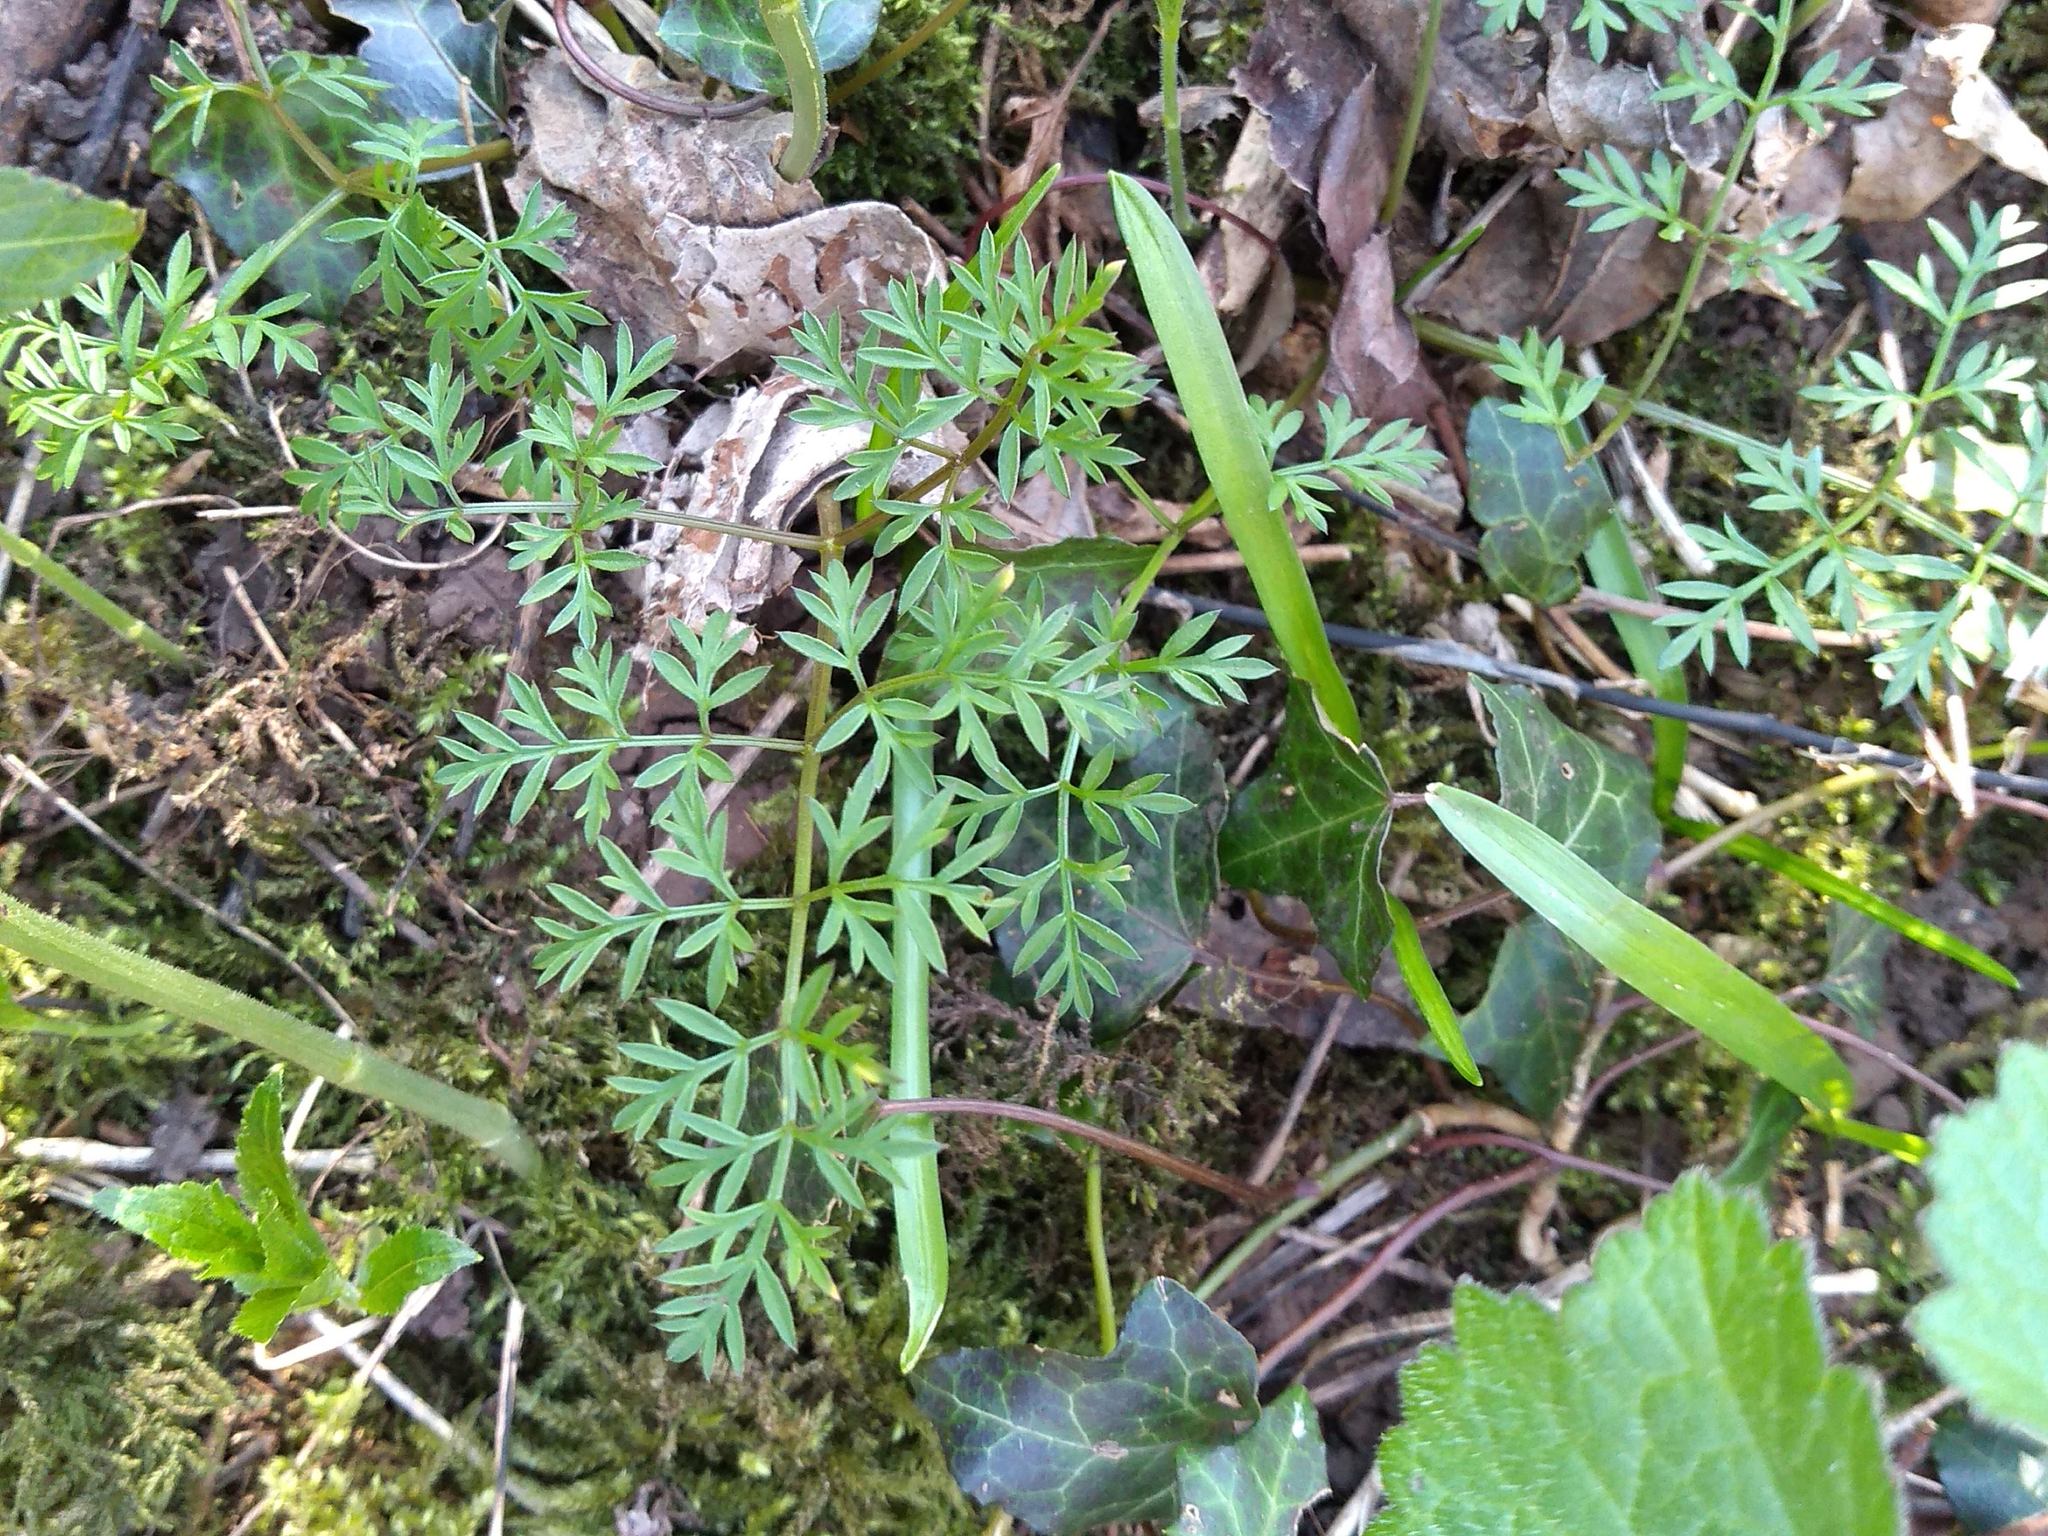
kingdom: Plantae
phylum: Tracheophyta
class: Magnoliopsida
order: Apiales
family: Apiaceae
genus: Conopodium
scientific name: Conopodium majus
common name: Pignut
